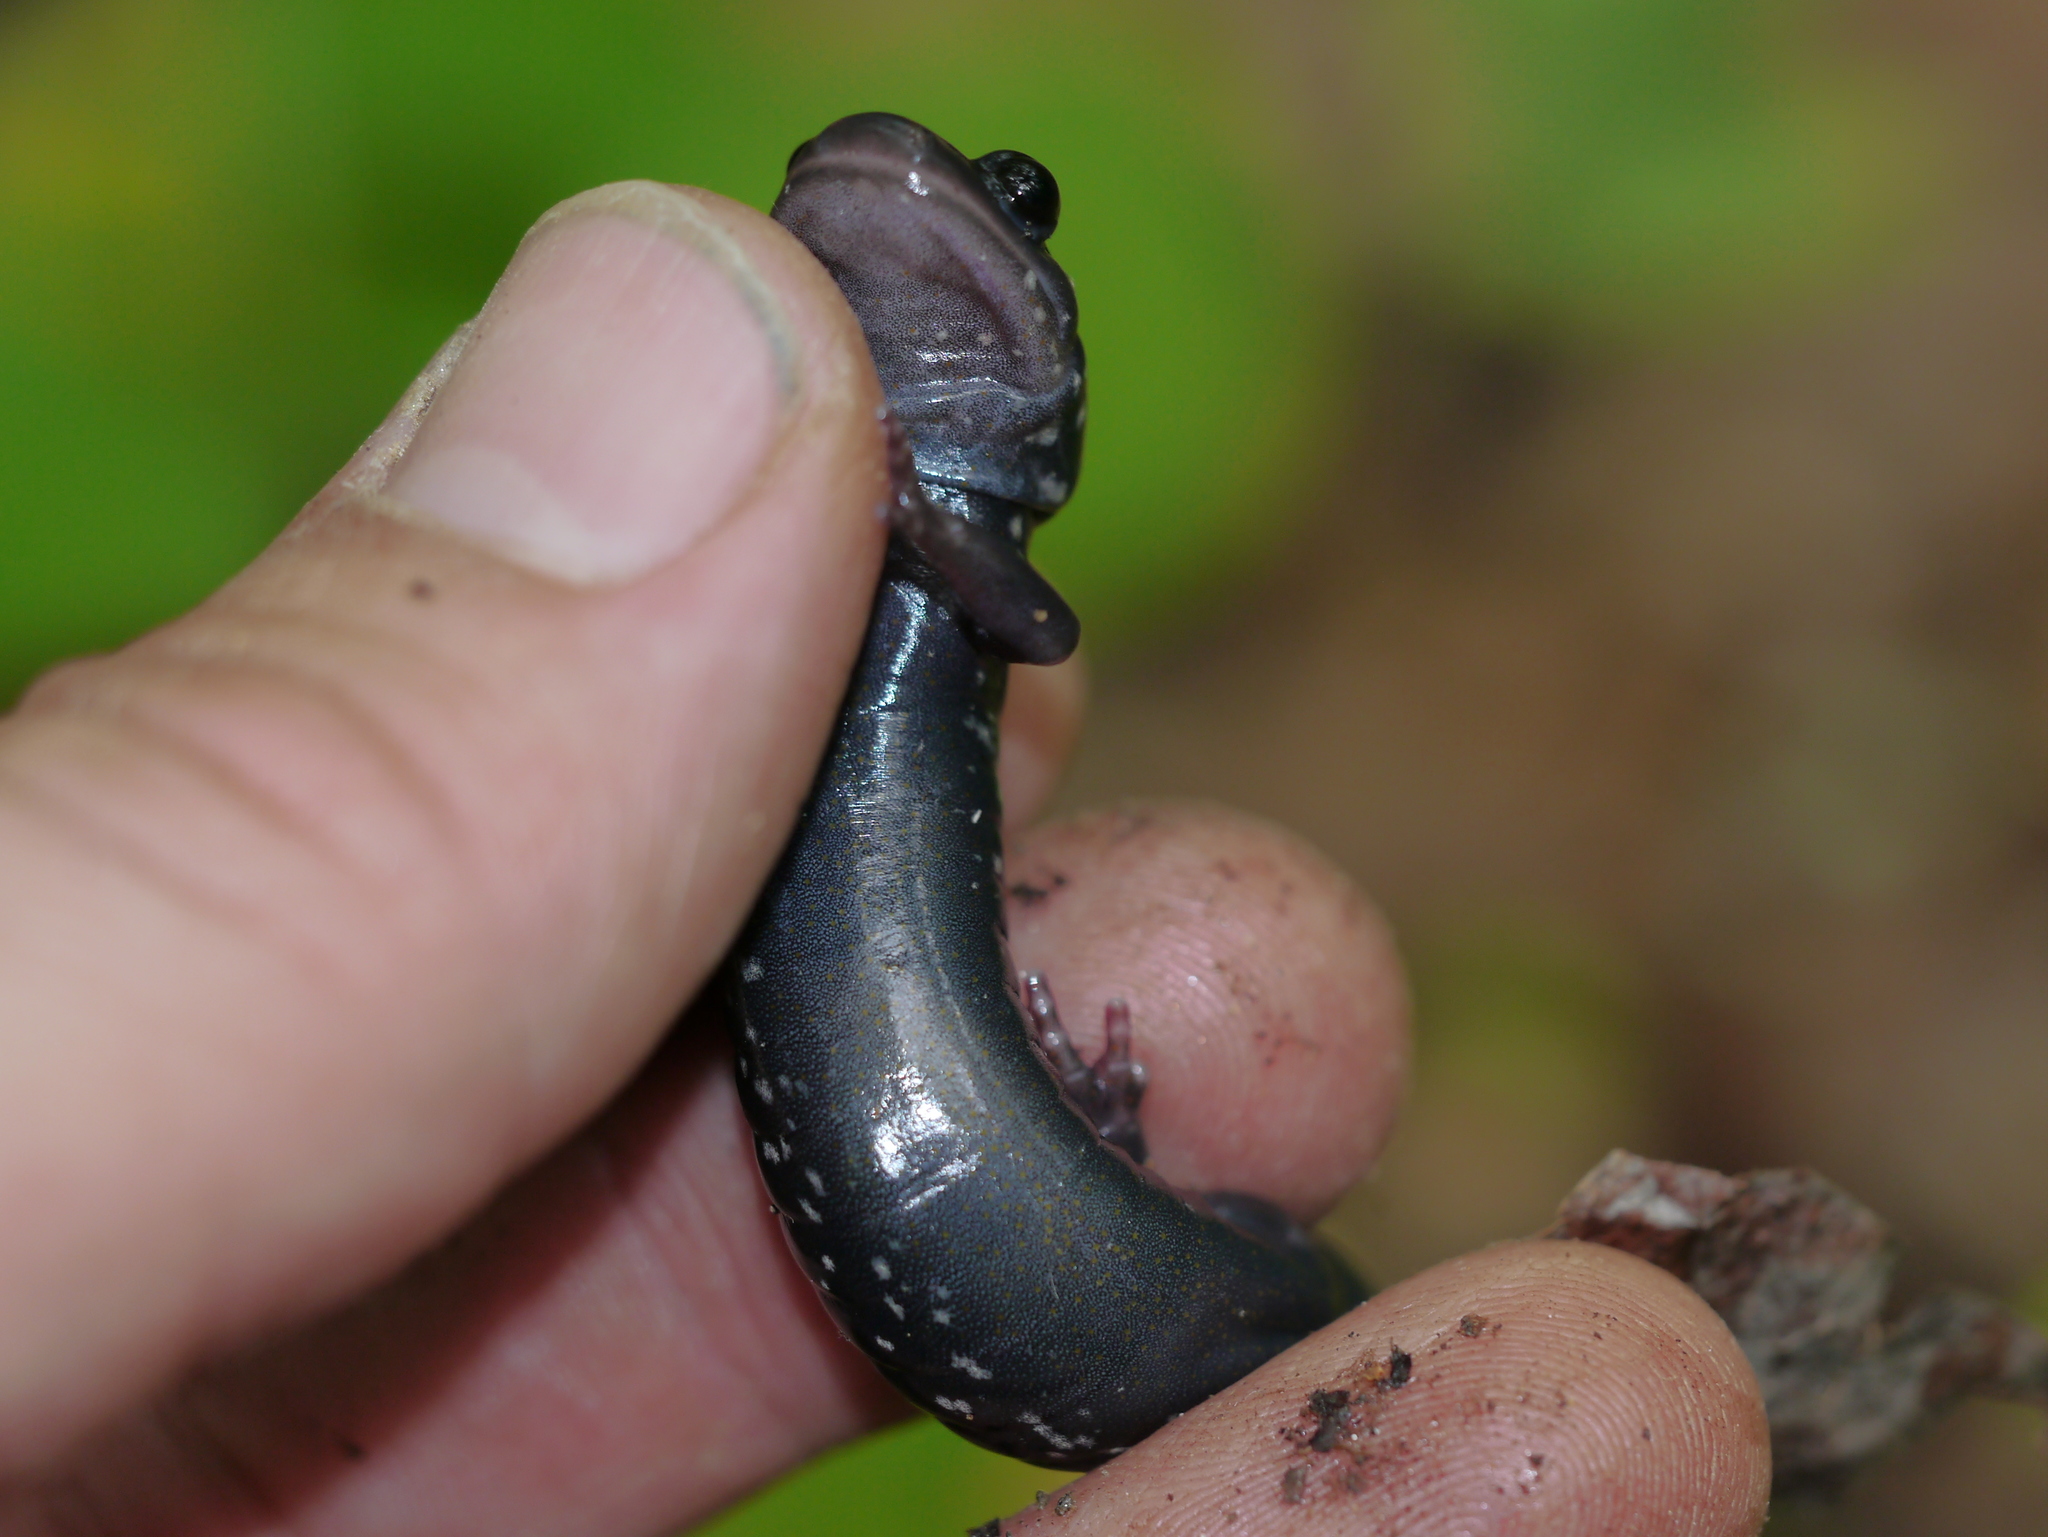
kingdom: Animalia
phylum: Chordata
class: Amphibia
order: Caudata
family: Plethodontidae
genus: Plethodon
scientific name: Plethodon teyahalee
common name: Southern appalachian salamander
